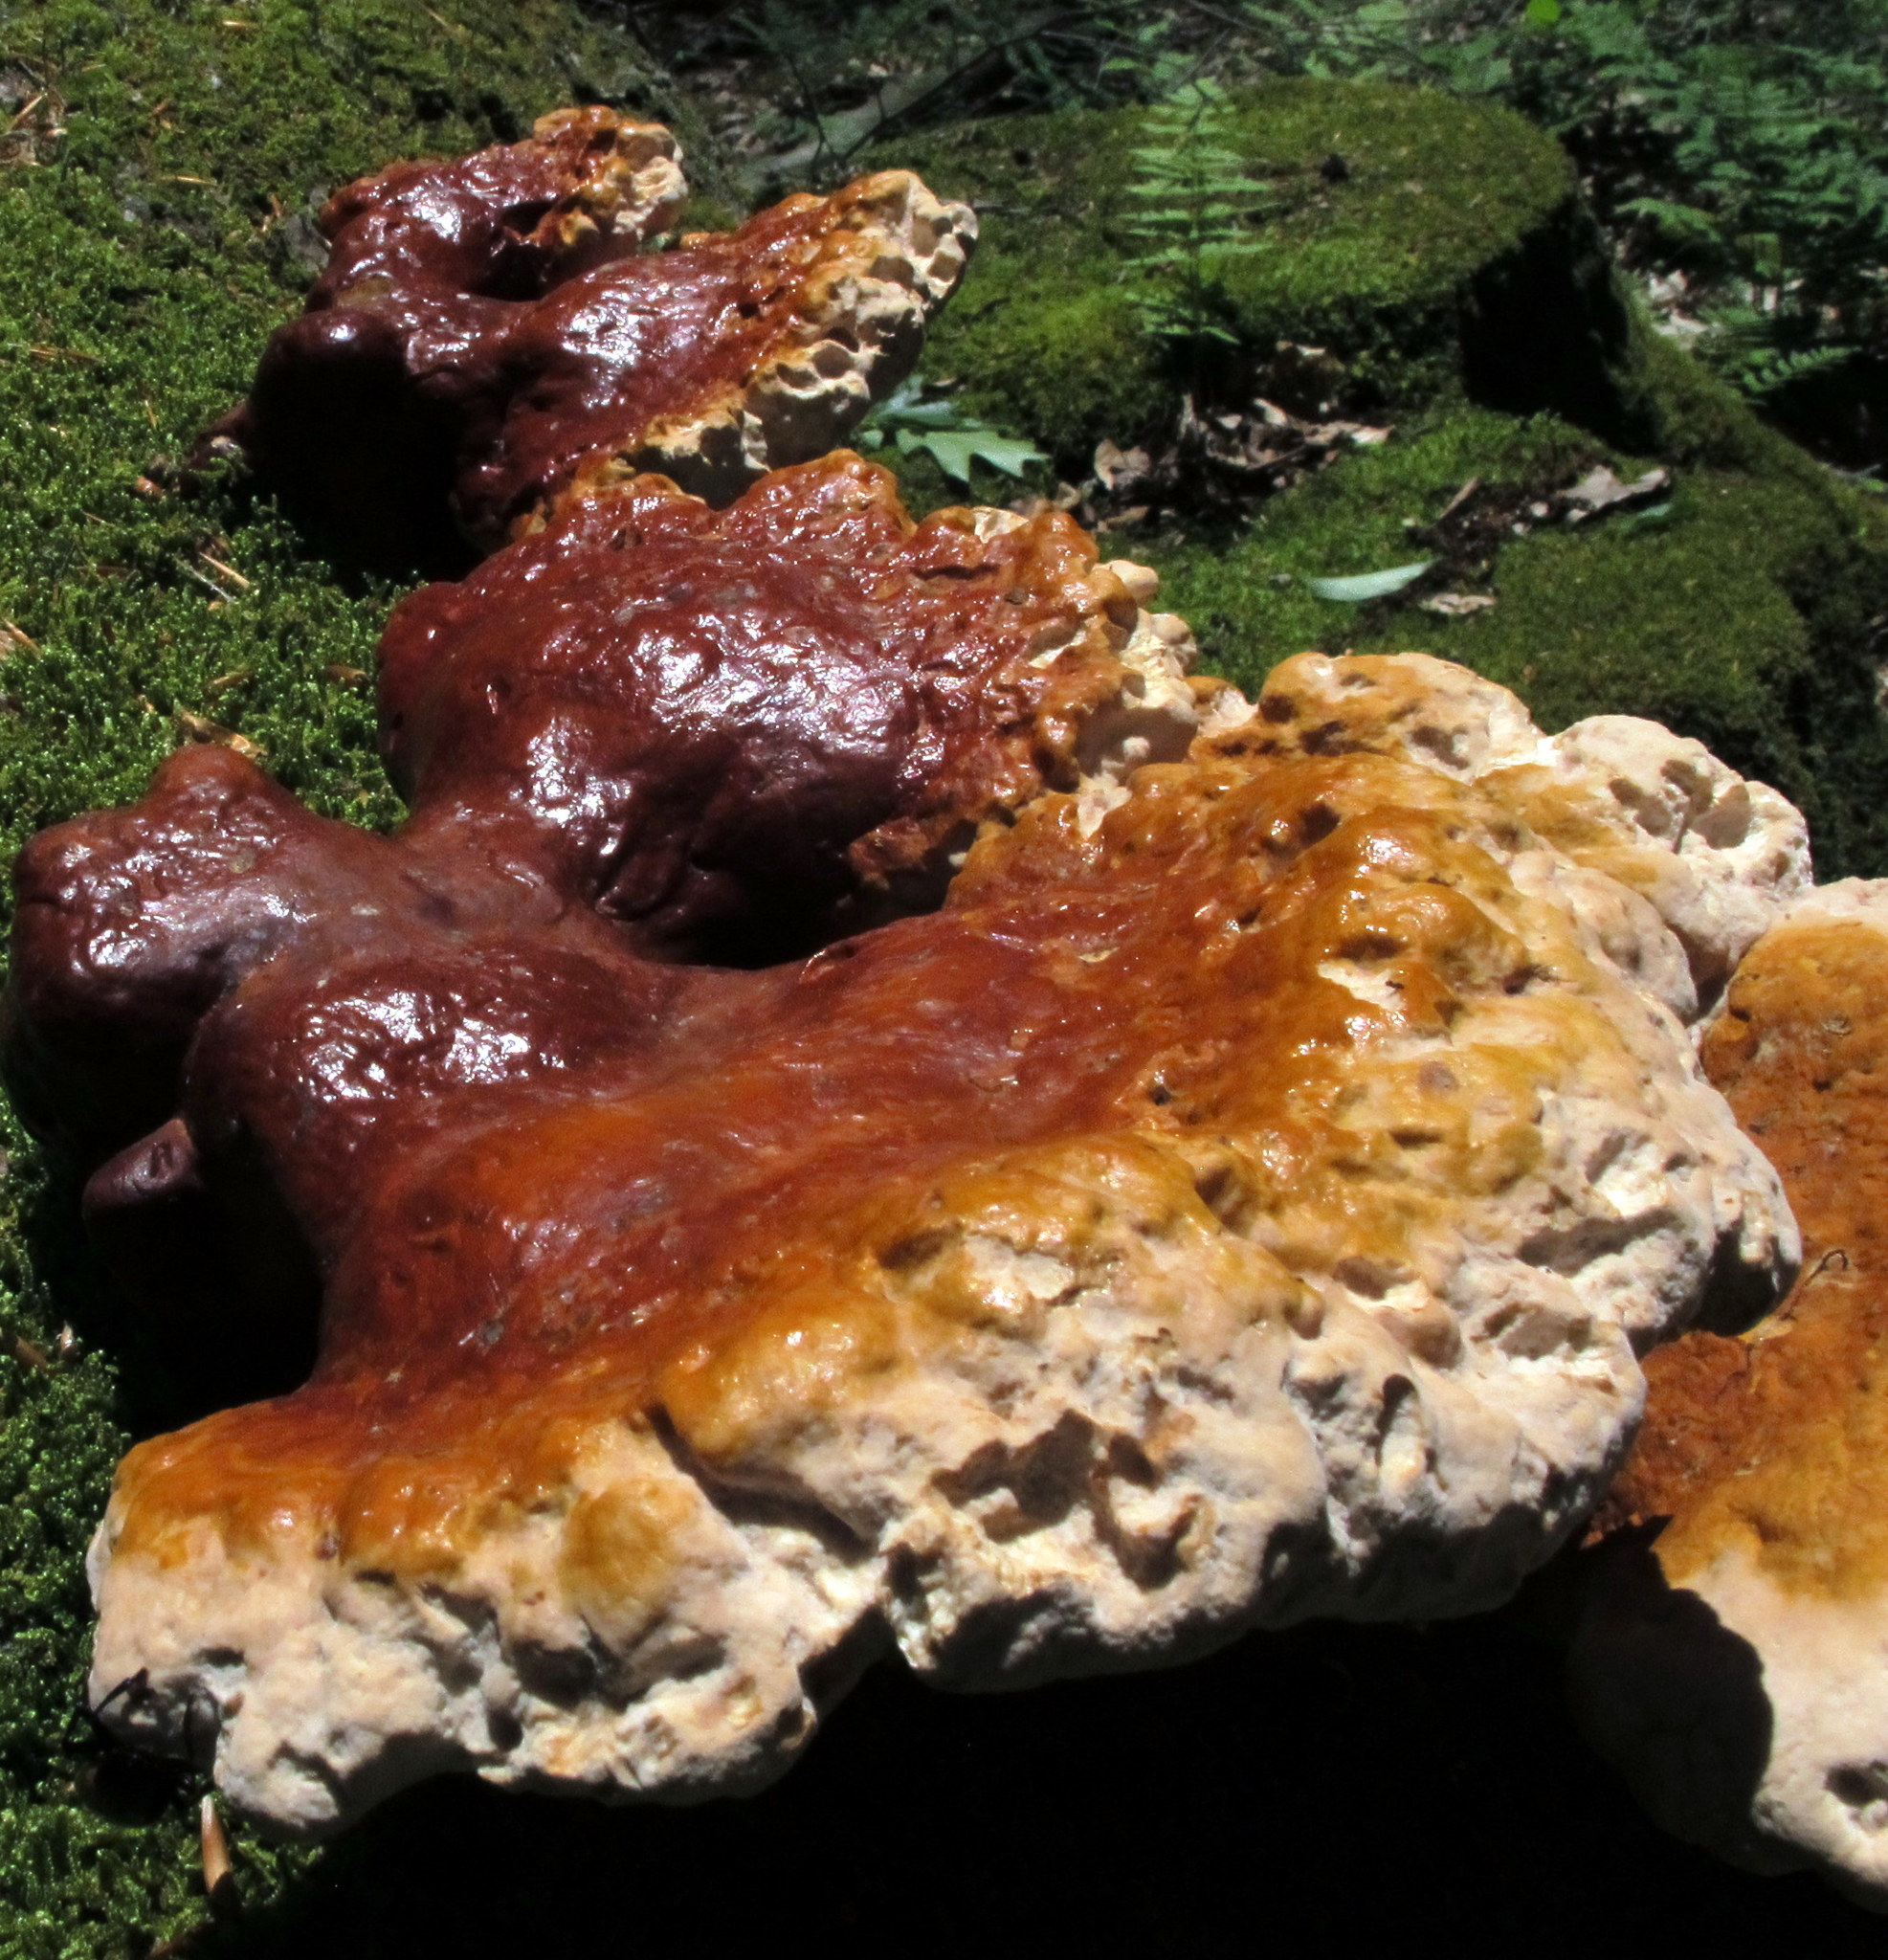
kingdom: Fungi
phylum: Basidiomycota
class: Agaricomycetes
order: Polyporales
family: Polyporaceae
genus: Ganoderma
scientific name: Ganoderma tsugae
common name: Hemlock varnish shelf
